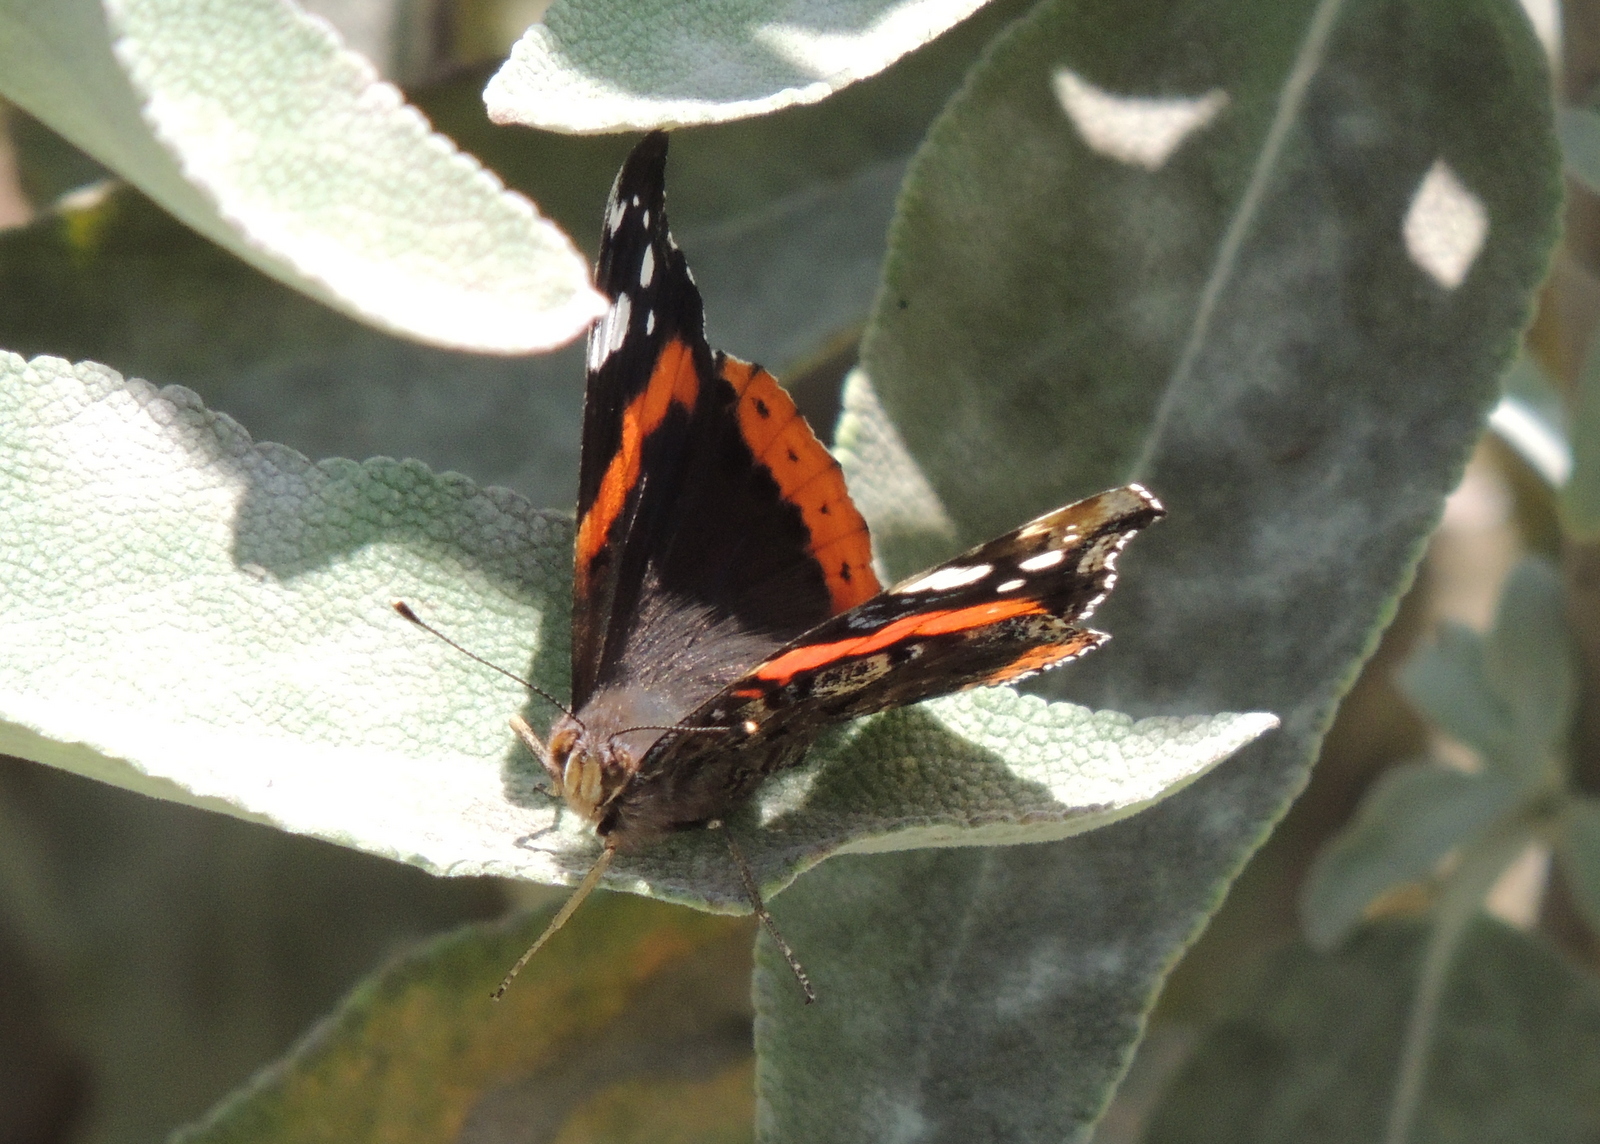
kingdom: Animalia
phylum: Arthropoda
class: Insecta
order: Lepidoptera
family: Nymphalidae
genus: Vanessa
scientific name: Vanessa atalanta
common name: Red admiral
